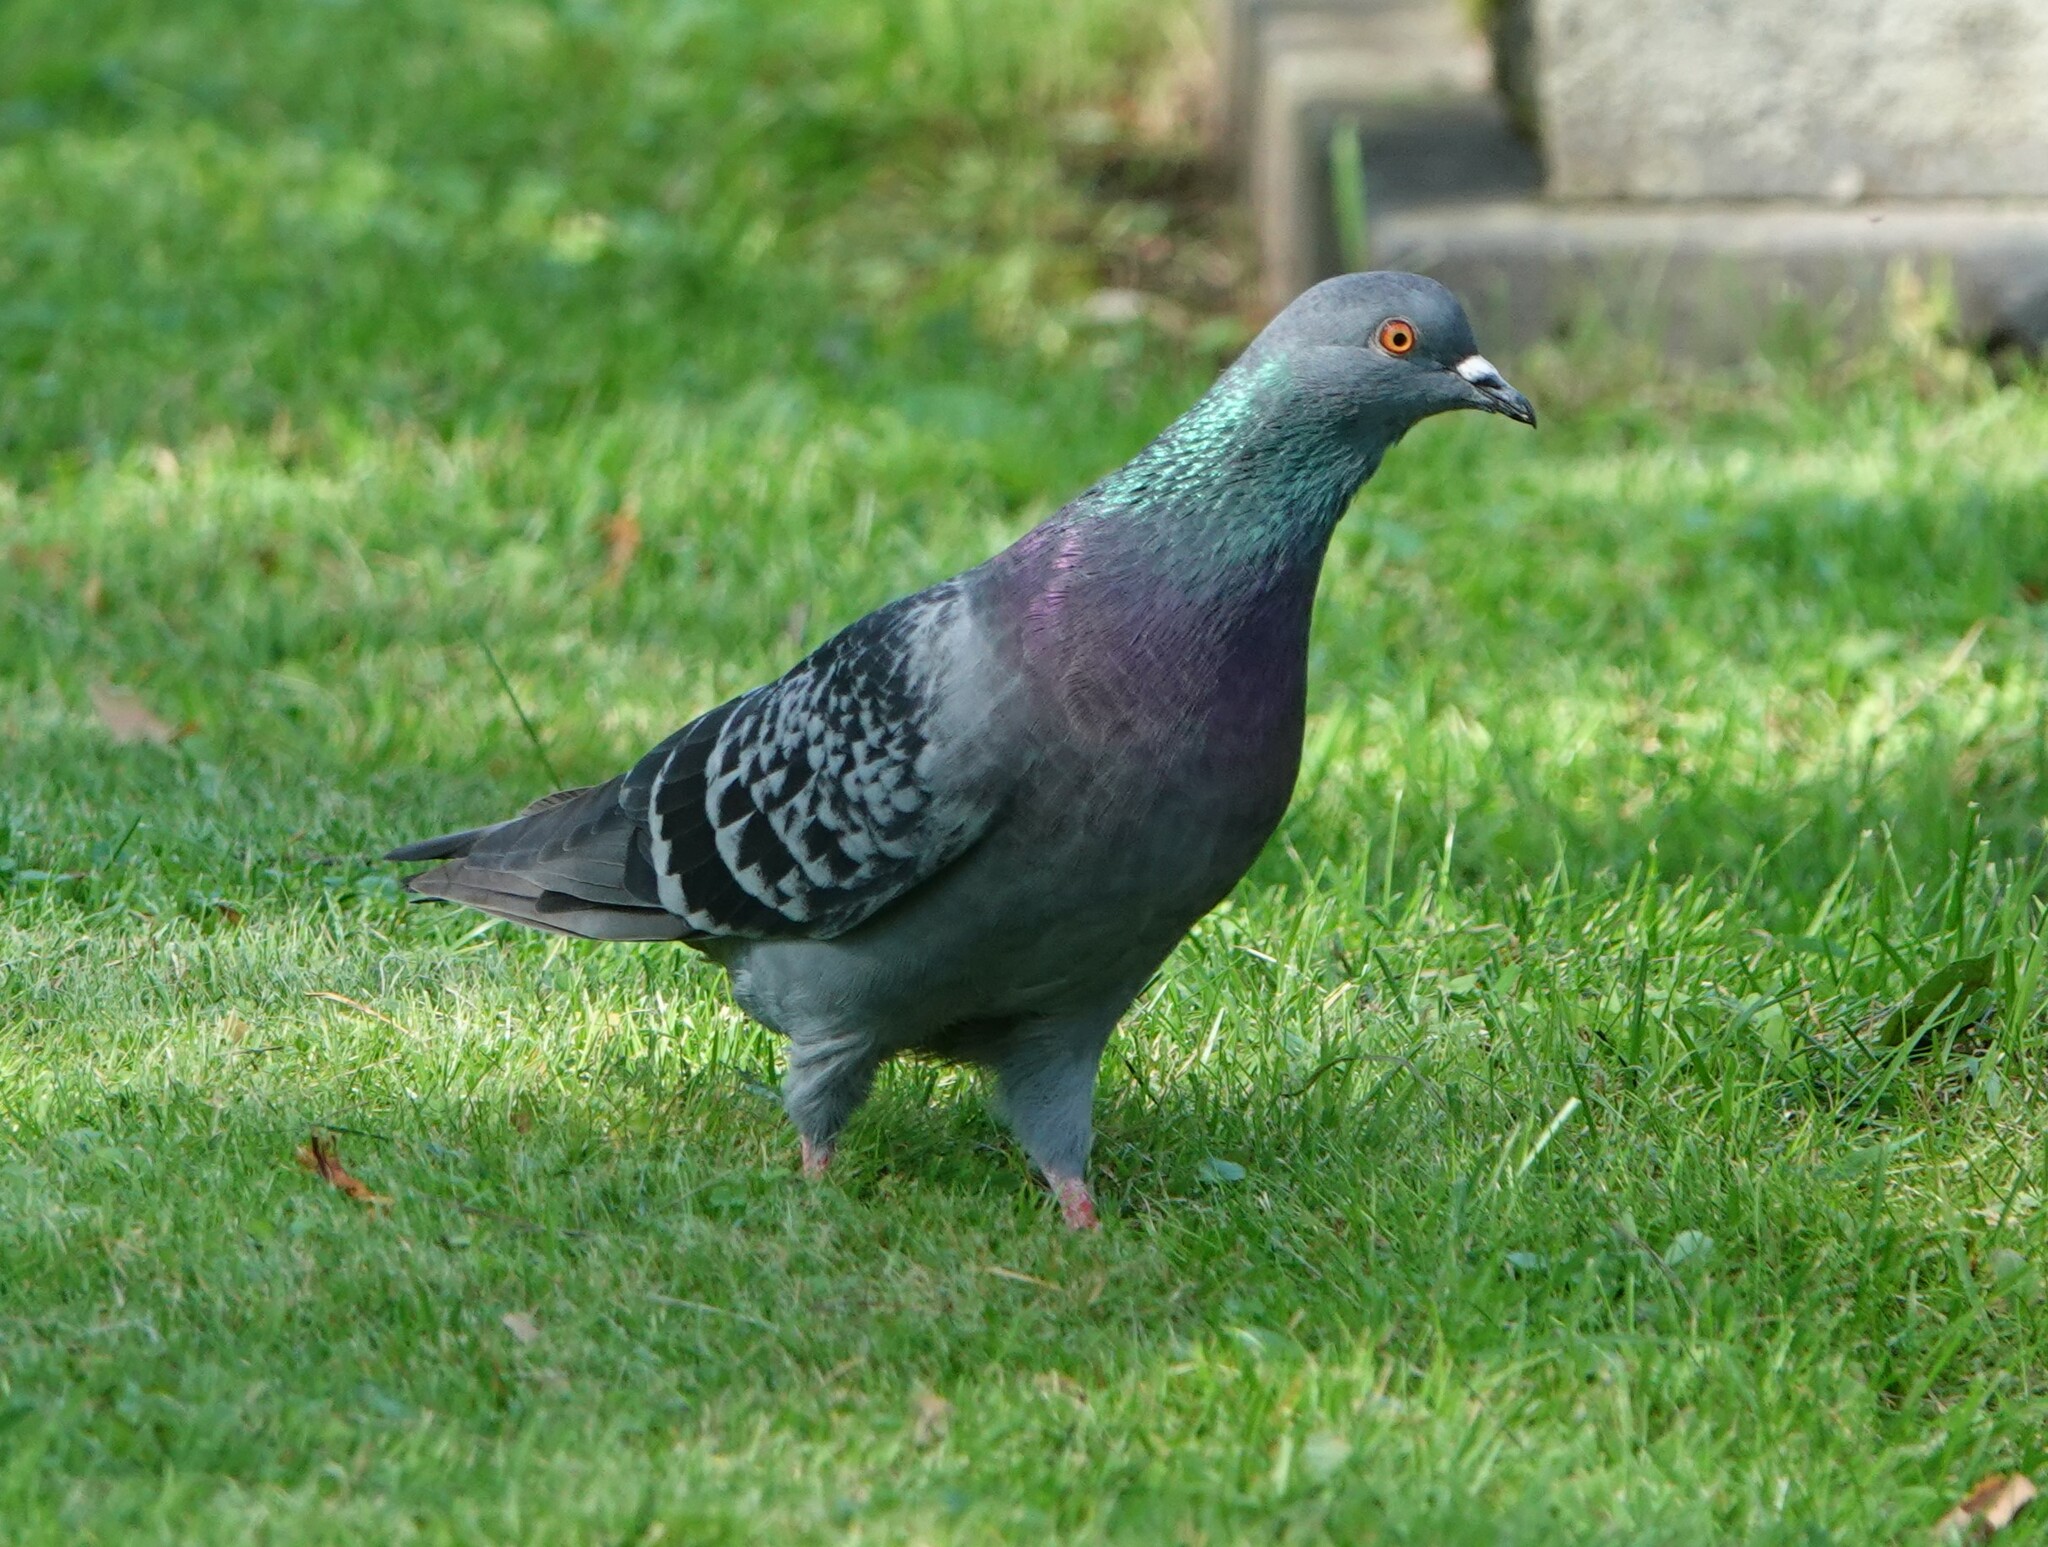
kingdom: Animalia
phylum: Chordata
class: Aves
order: Columbiformes
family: Columbidae
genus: Columba
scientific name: Columba livia
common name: Rock pigeon
